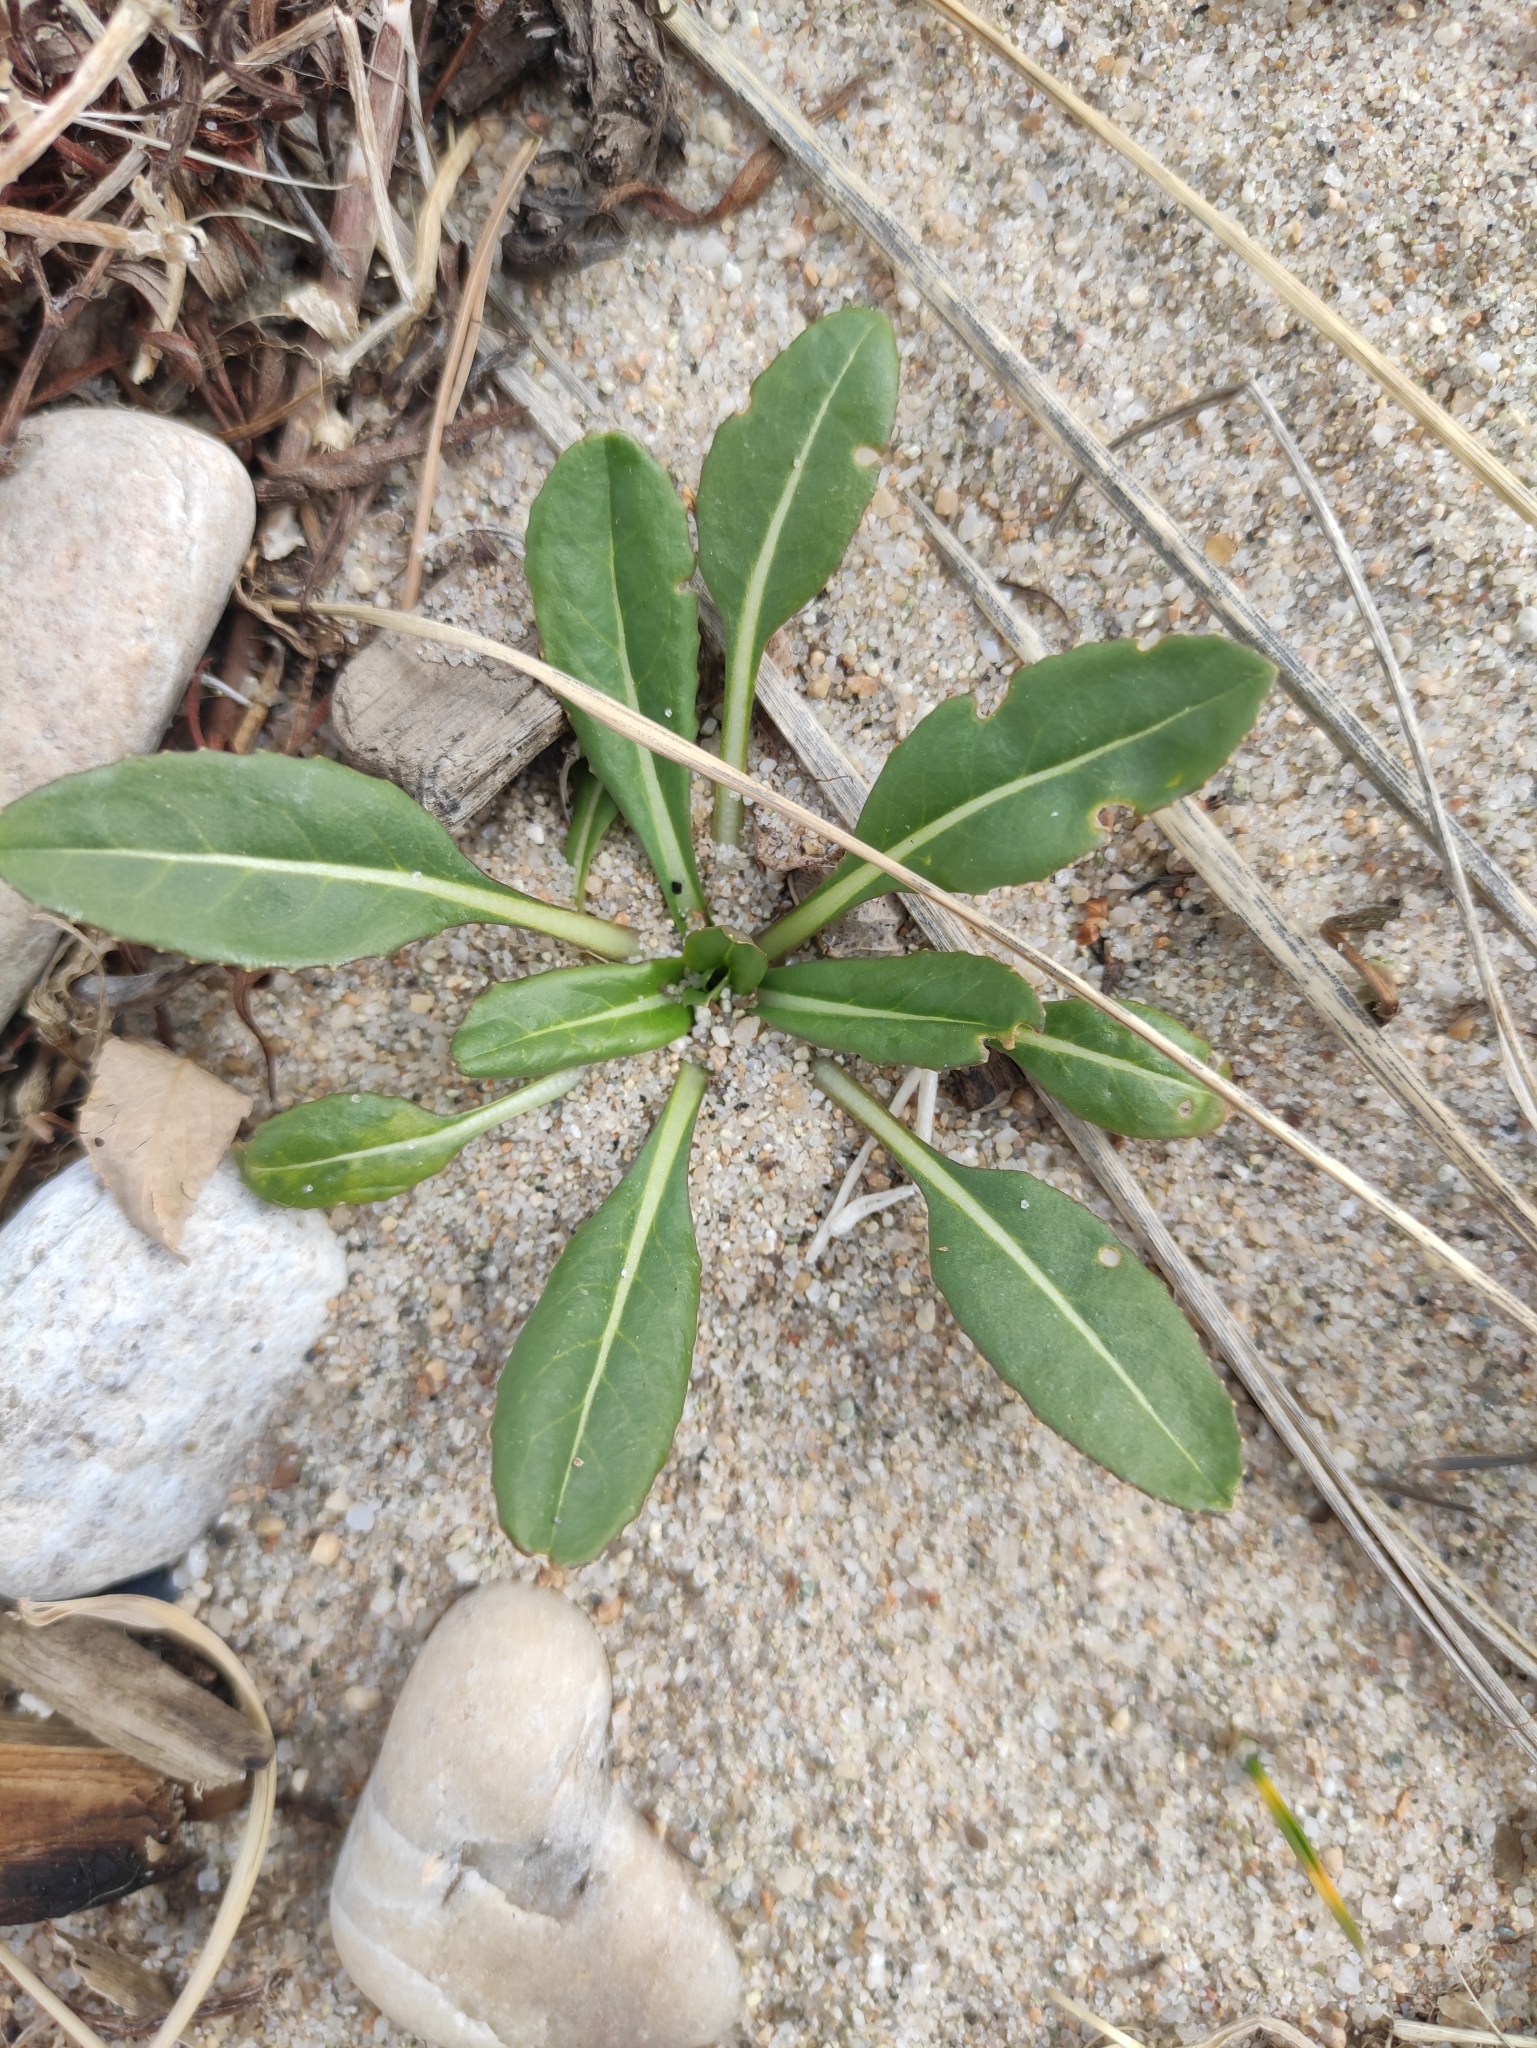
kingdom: Plantae
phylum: Tracheophyta
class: Magnoliopsida
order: Brassicales
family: Brassicaceae
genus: Isatis
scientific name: Isatis tinctoria
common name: Woad
